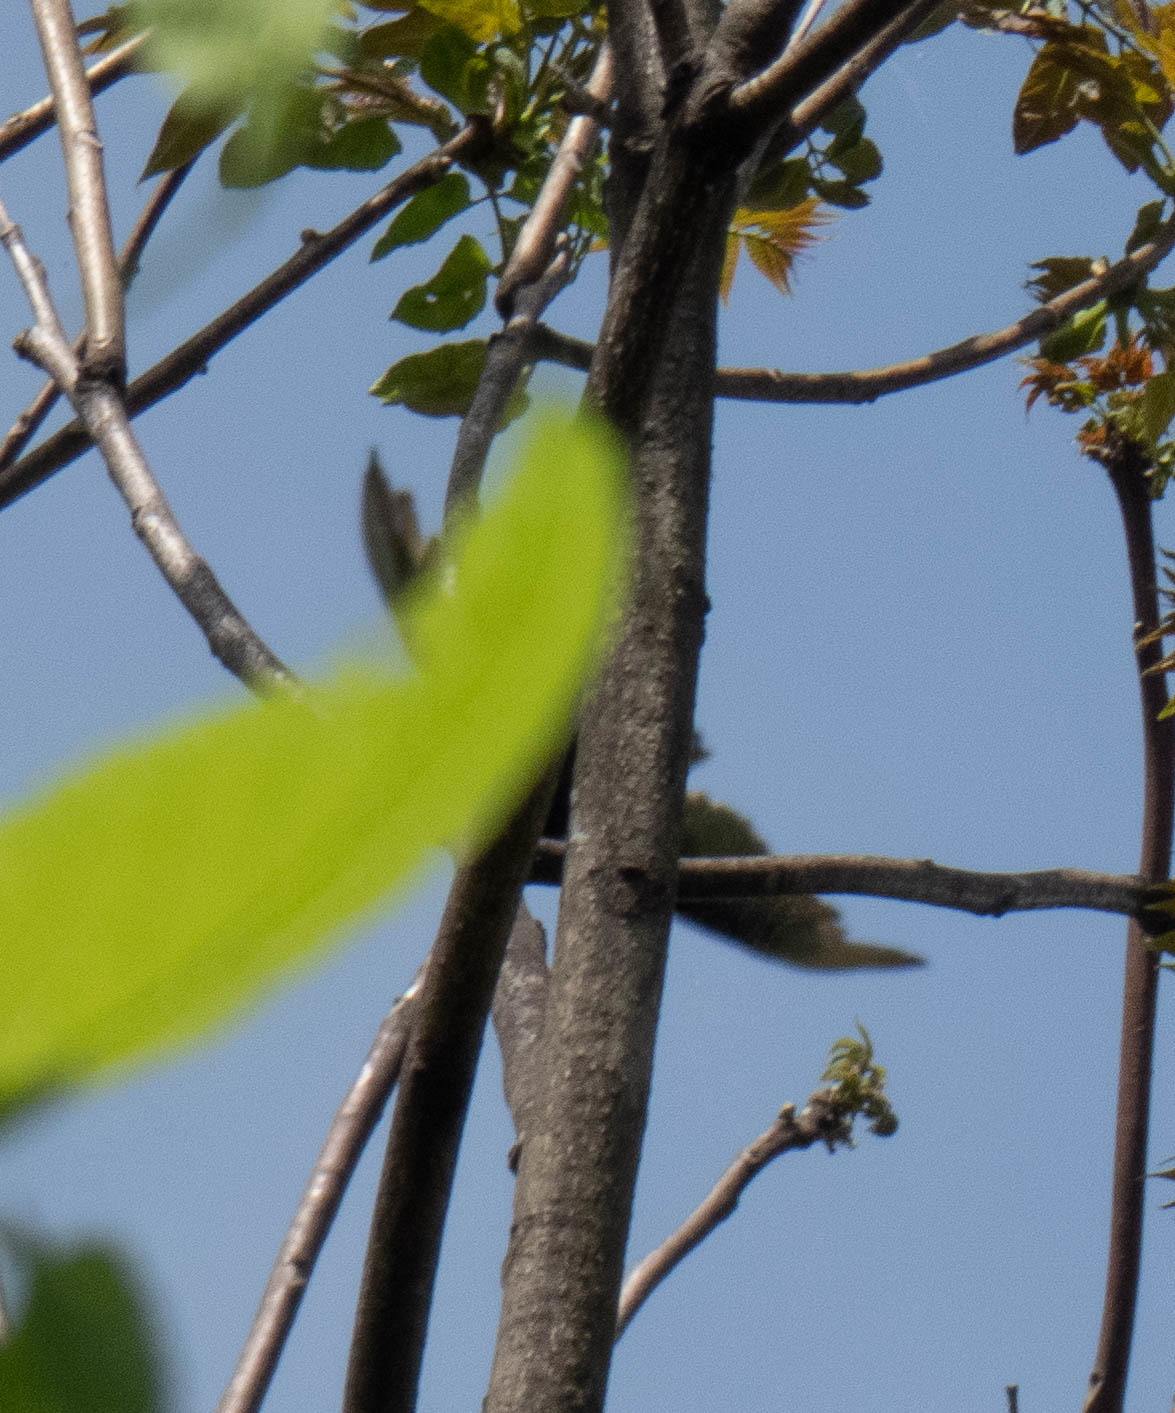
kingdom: Animalia
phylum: Chordata
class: Aves
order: Accipitriformes
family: Cathartidae
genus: Cathartes
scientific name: Cathartes aura
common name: Turkey vulture
